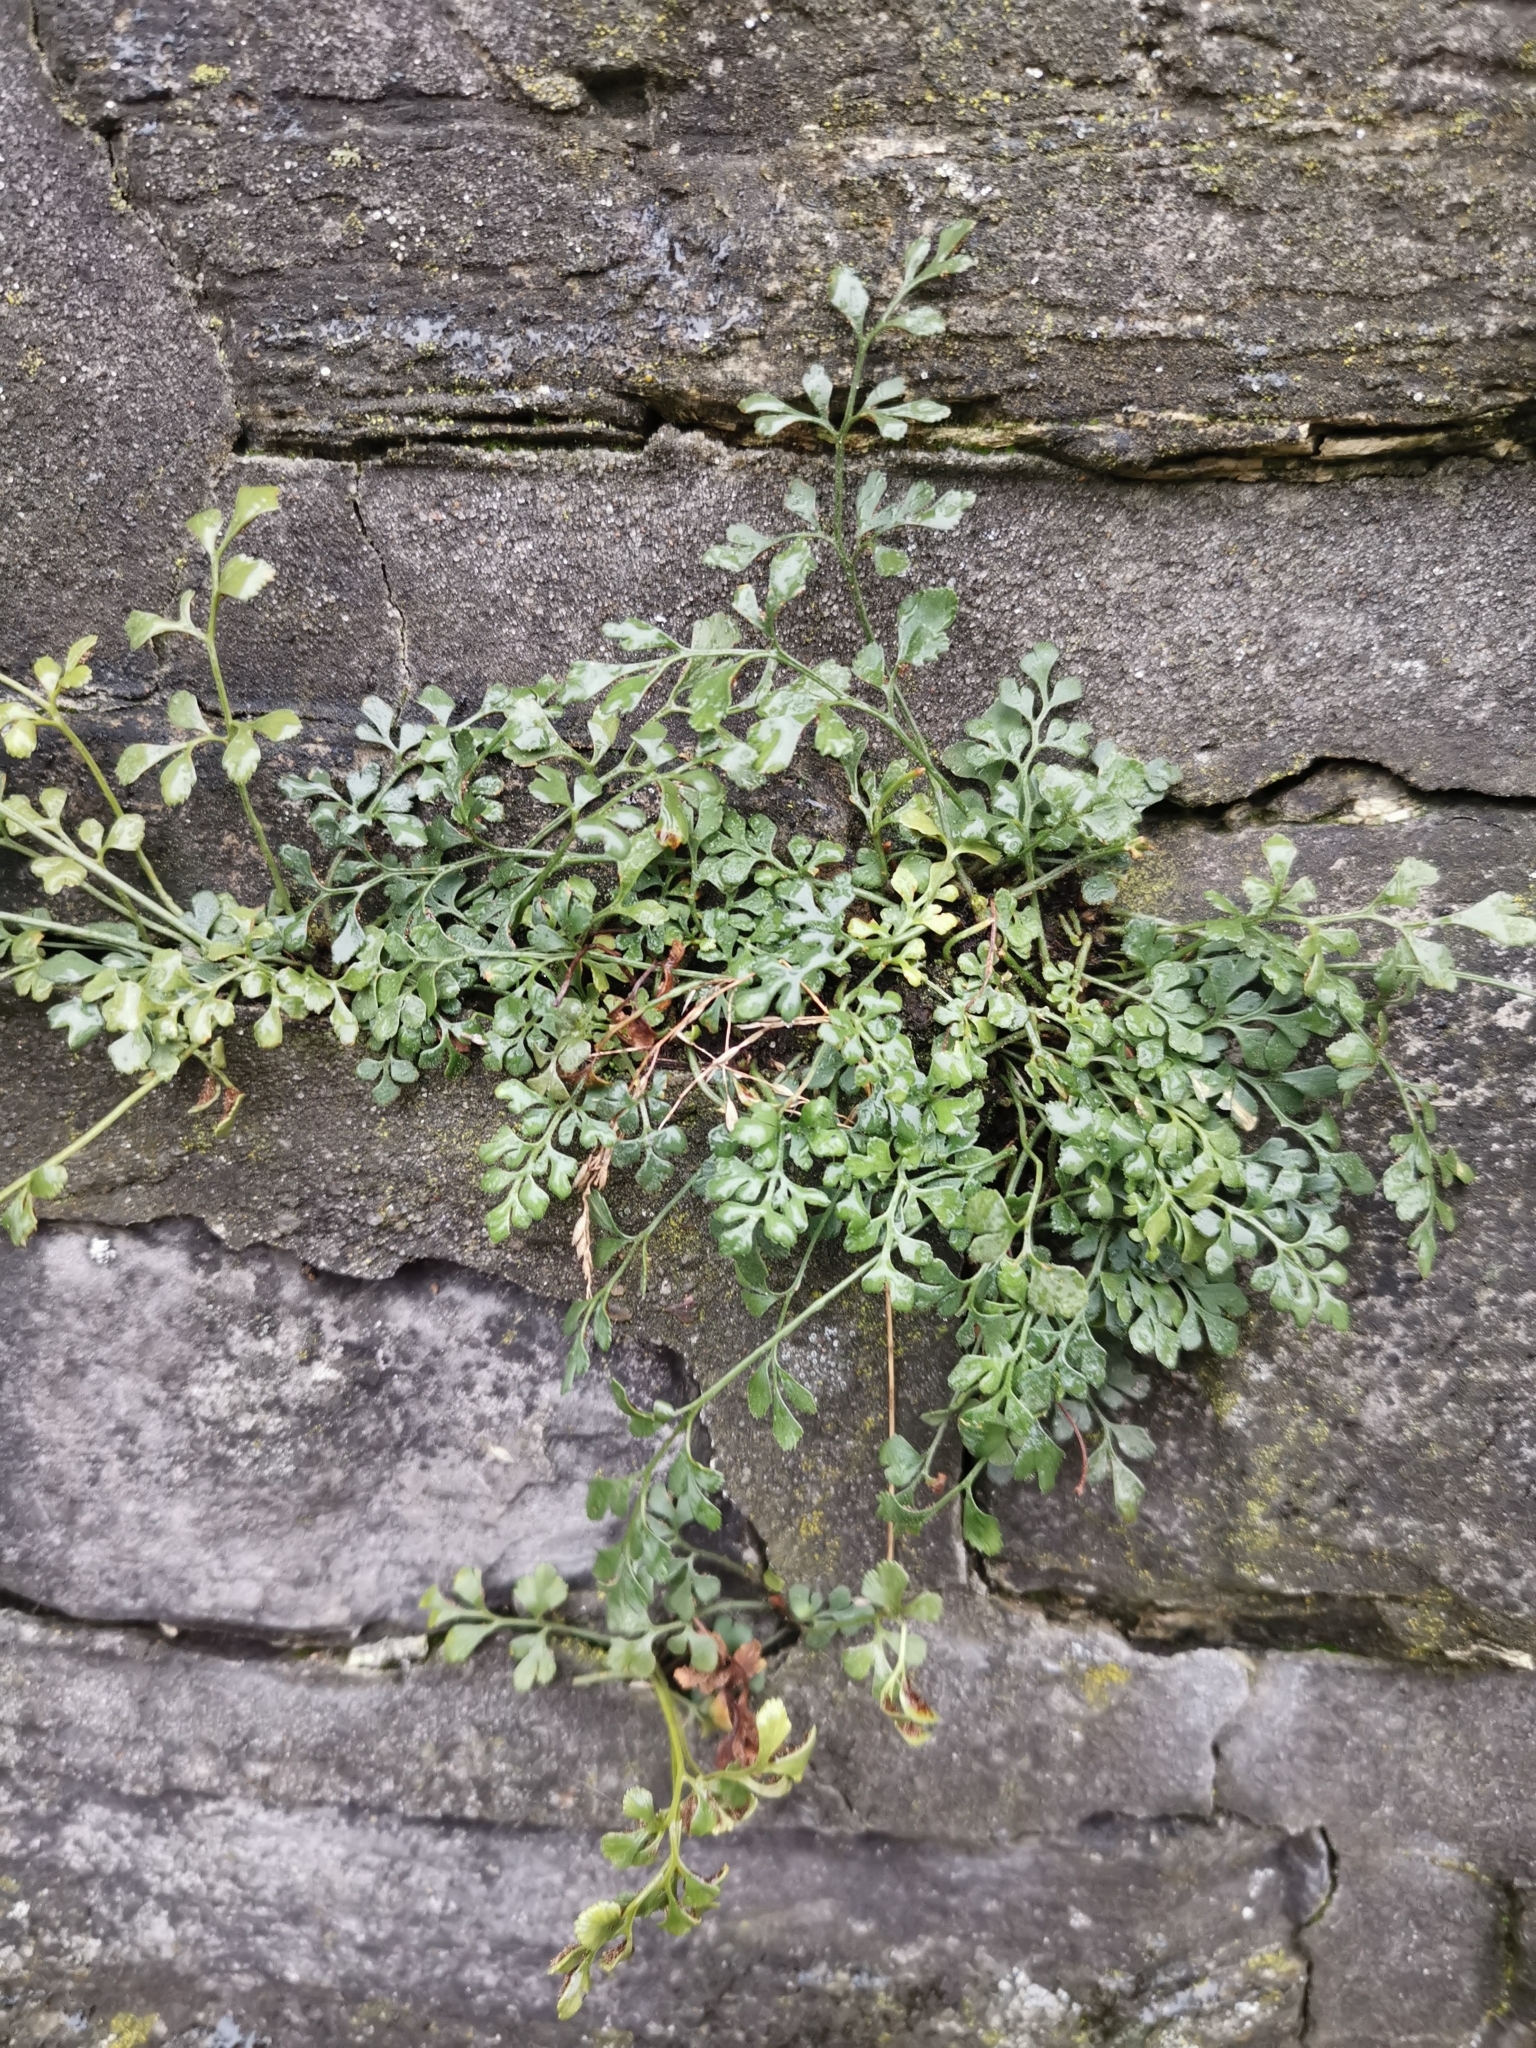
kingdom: Plantae
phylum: Tracheophyta
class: Polypodiopsida
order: Polypodiales
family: Aspleniaceae
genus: Asplenium
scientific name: Asplenium ruta-muraria
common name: Wall-rue
